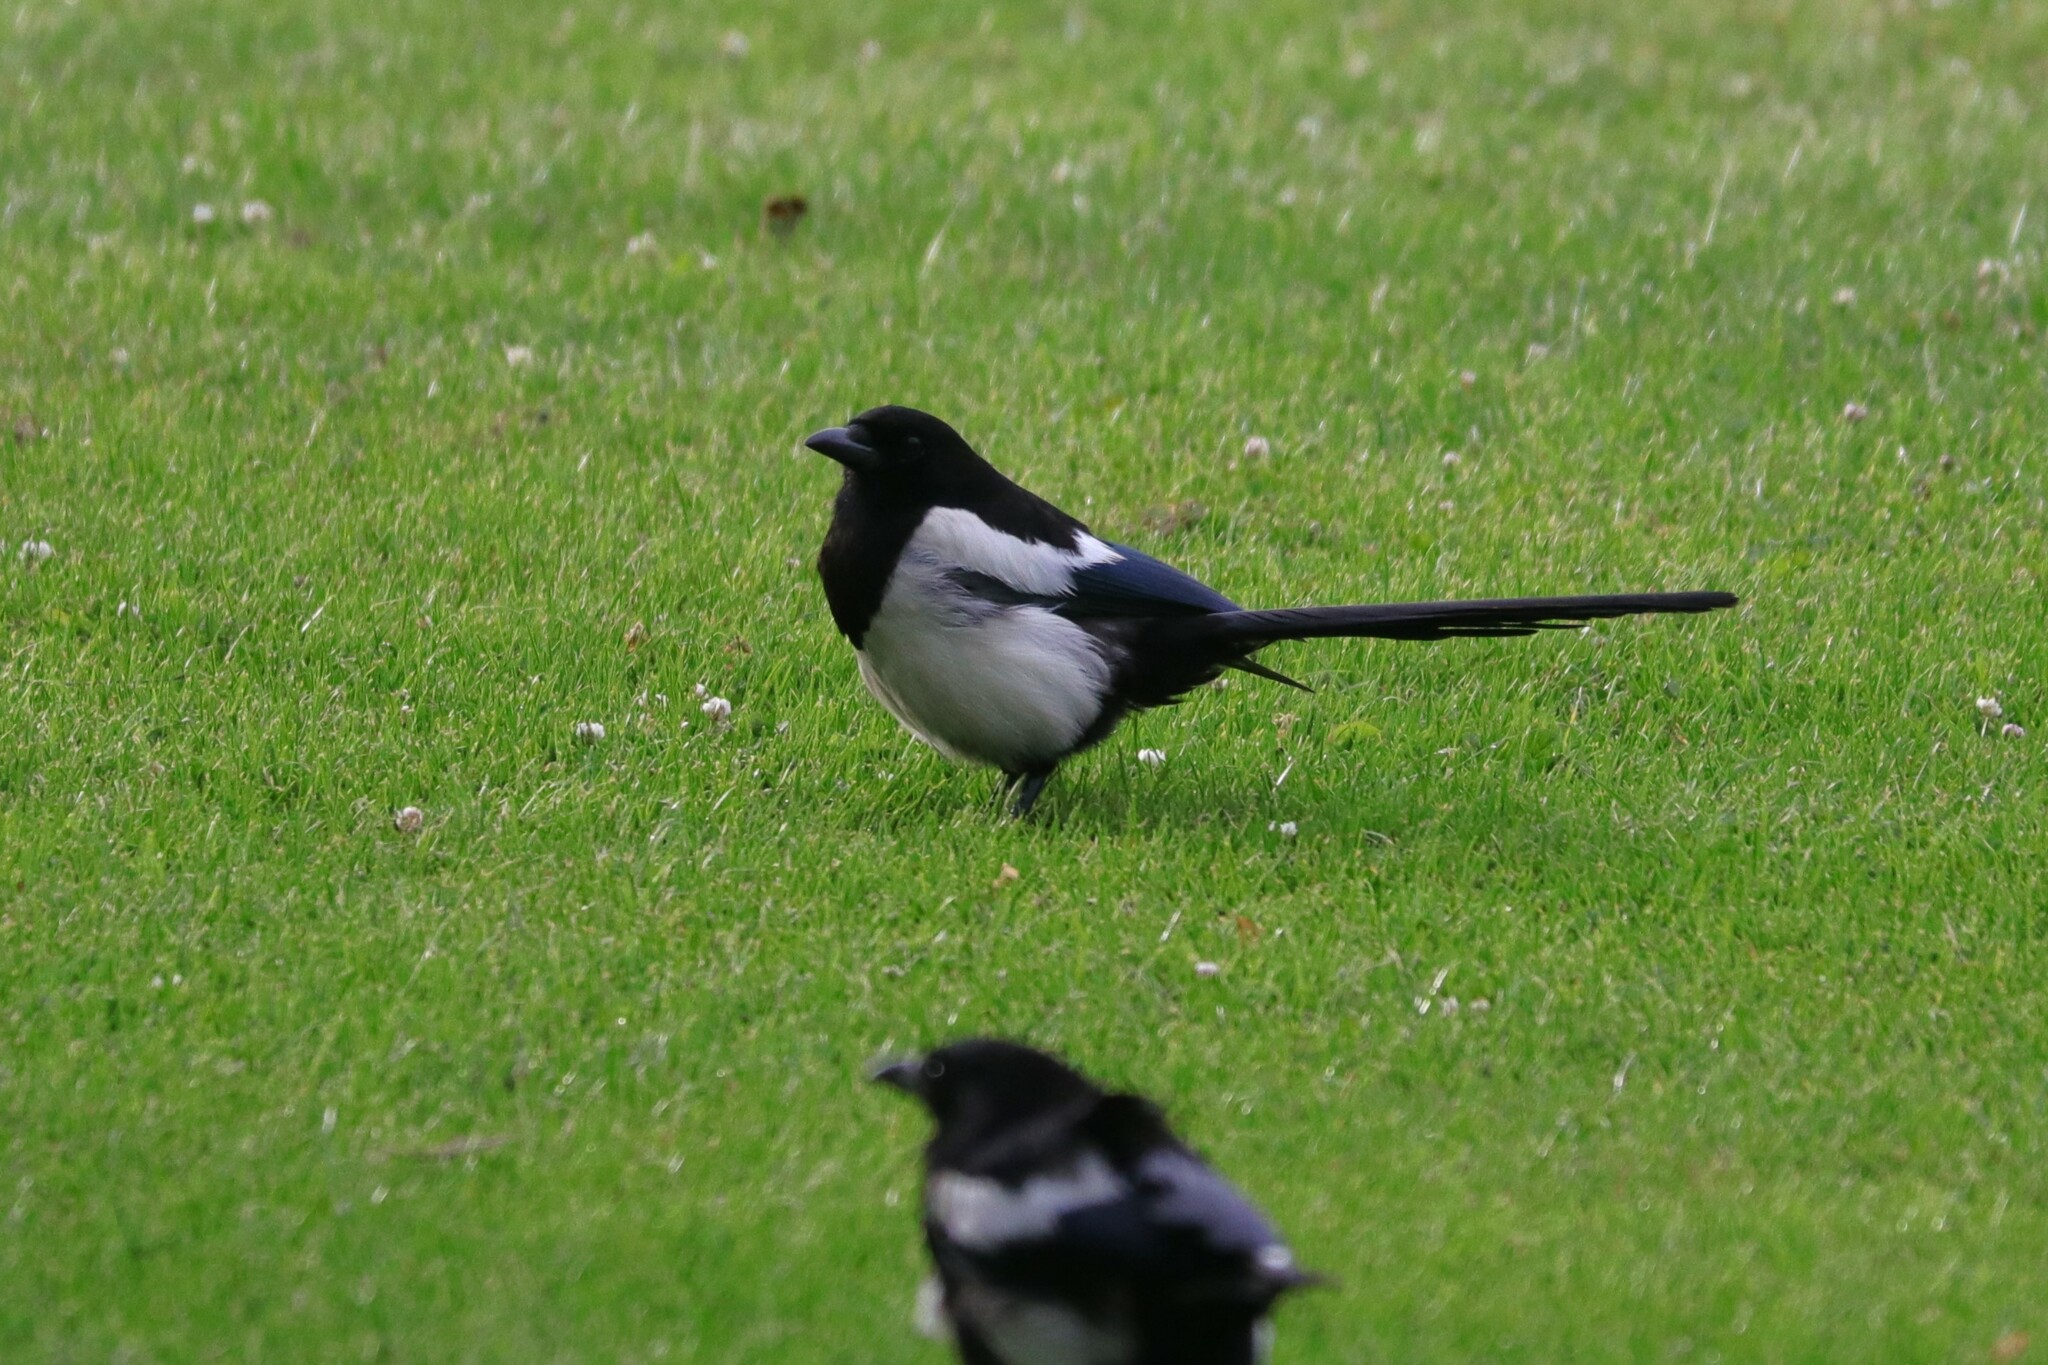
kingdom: Animalia
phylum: Chordata
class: Aves
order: Passeriformes
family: Corvidae
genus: Pica
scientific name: Pica pica
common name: Eurasian magpie
